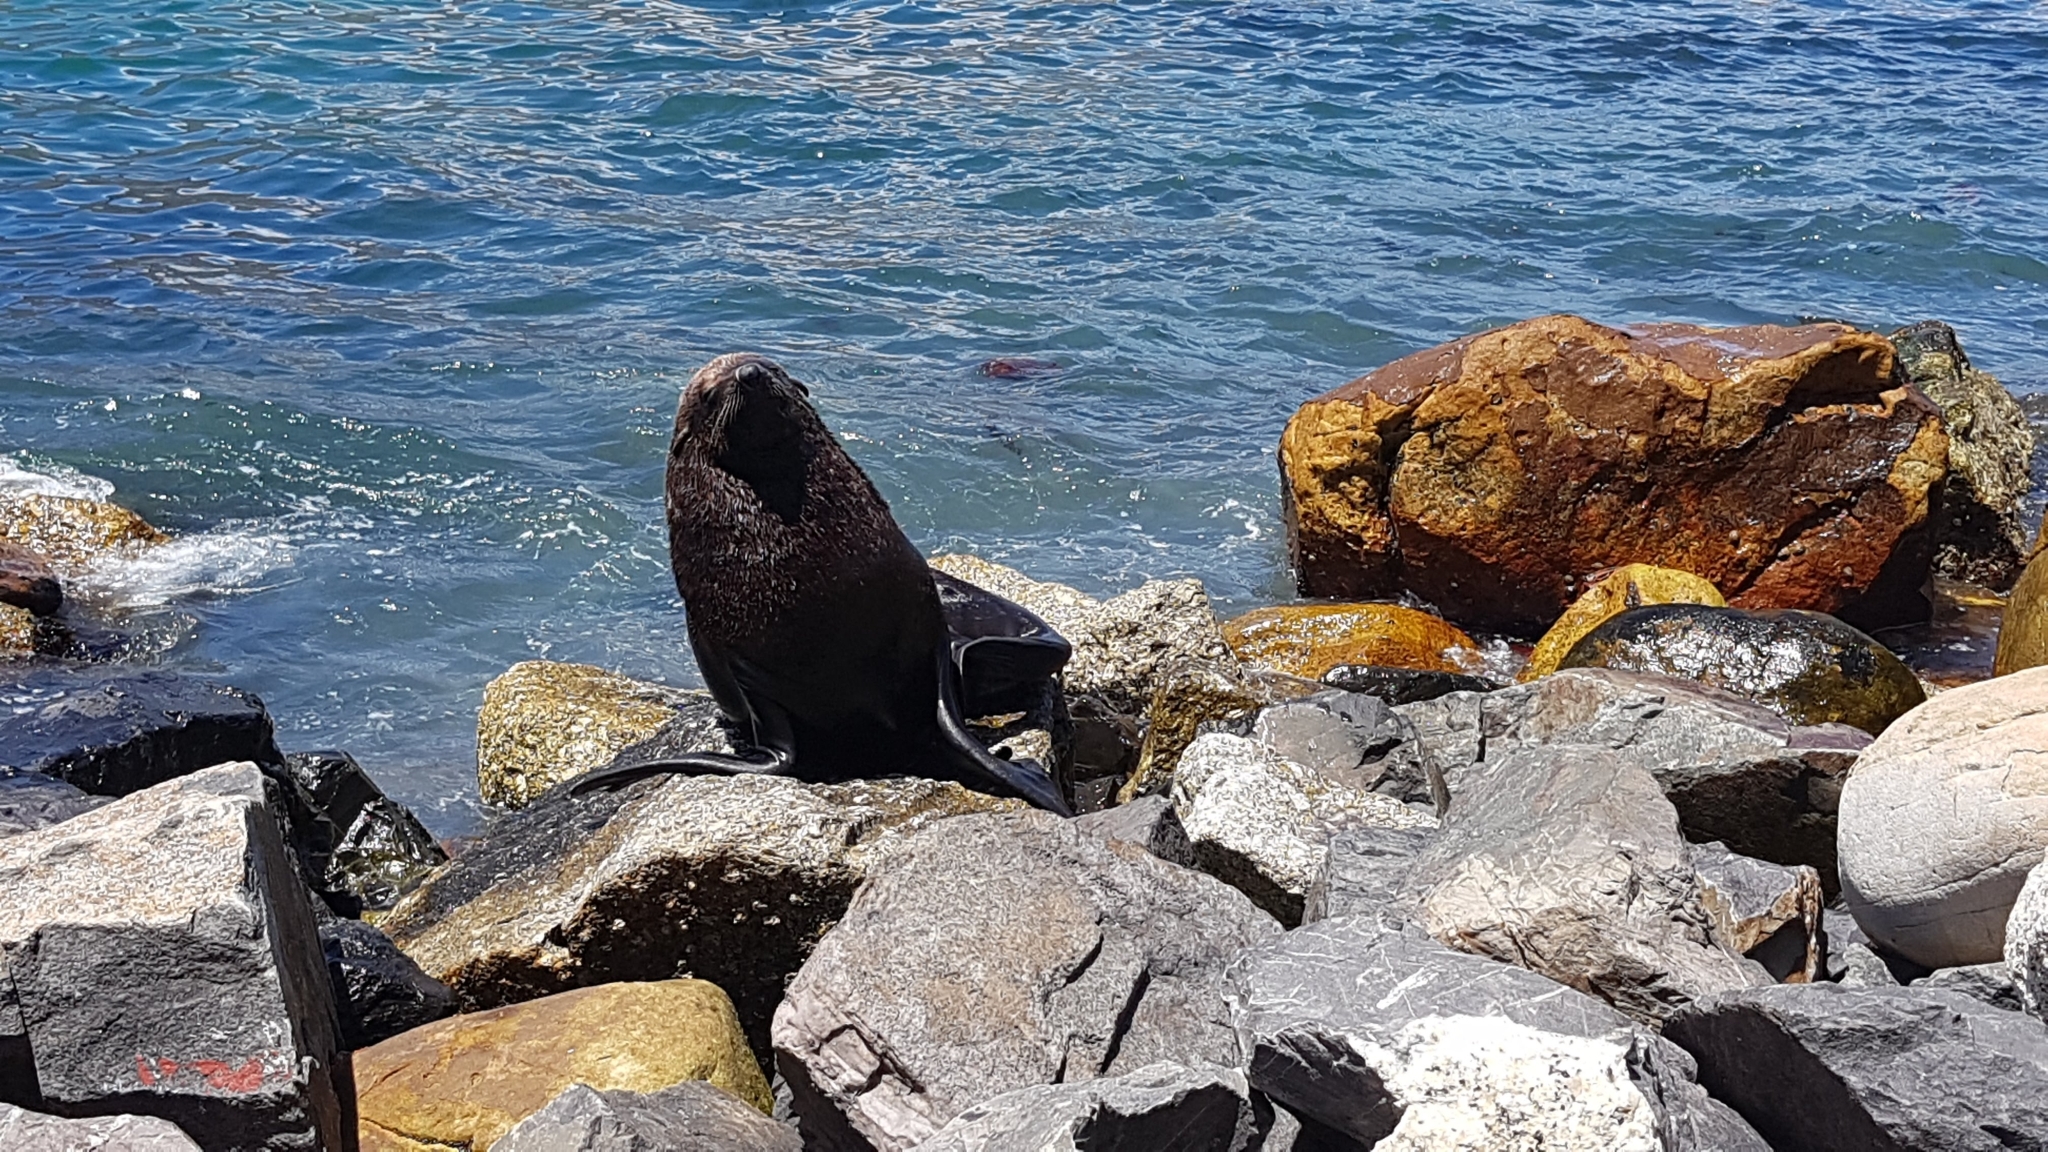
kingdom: Animalia
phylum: Chordata
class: Mammalia
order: Carnivora
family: Otariidae
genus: Arctocephalus
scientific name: Arctocephalus pusillus
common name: Brown fur seal
